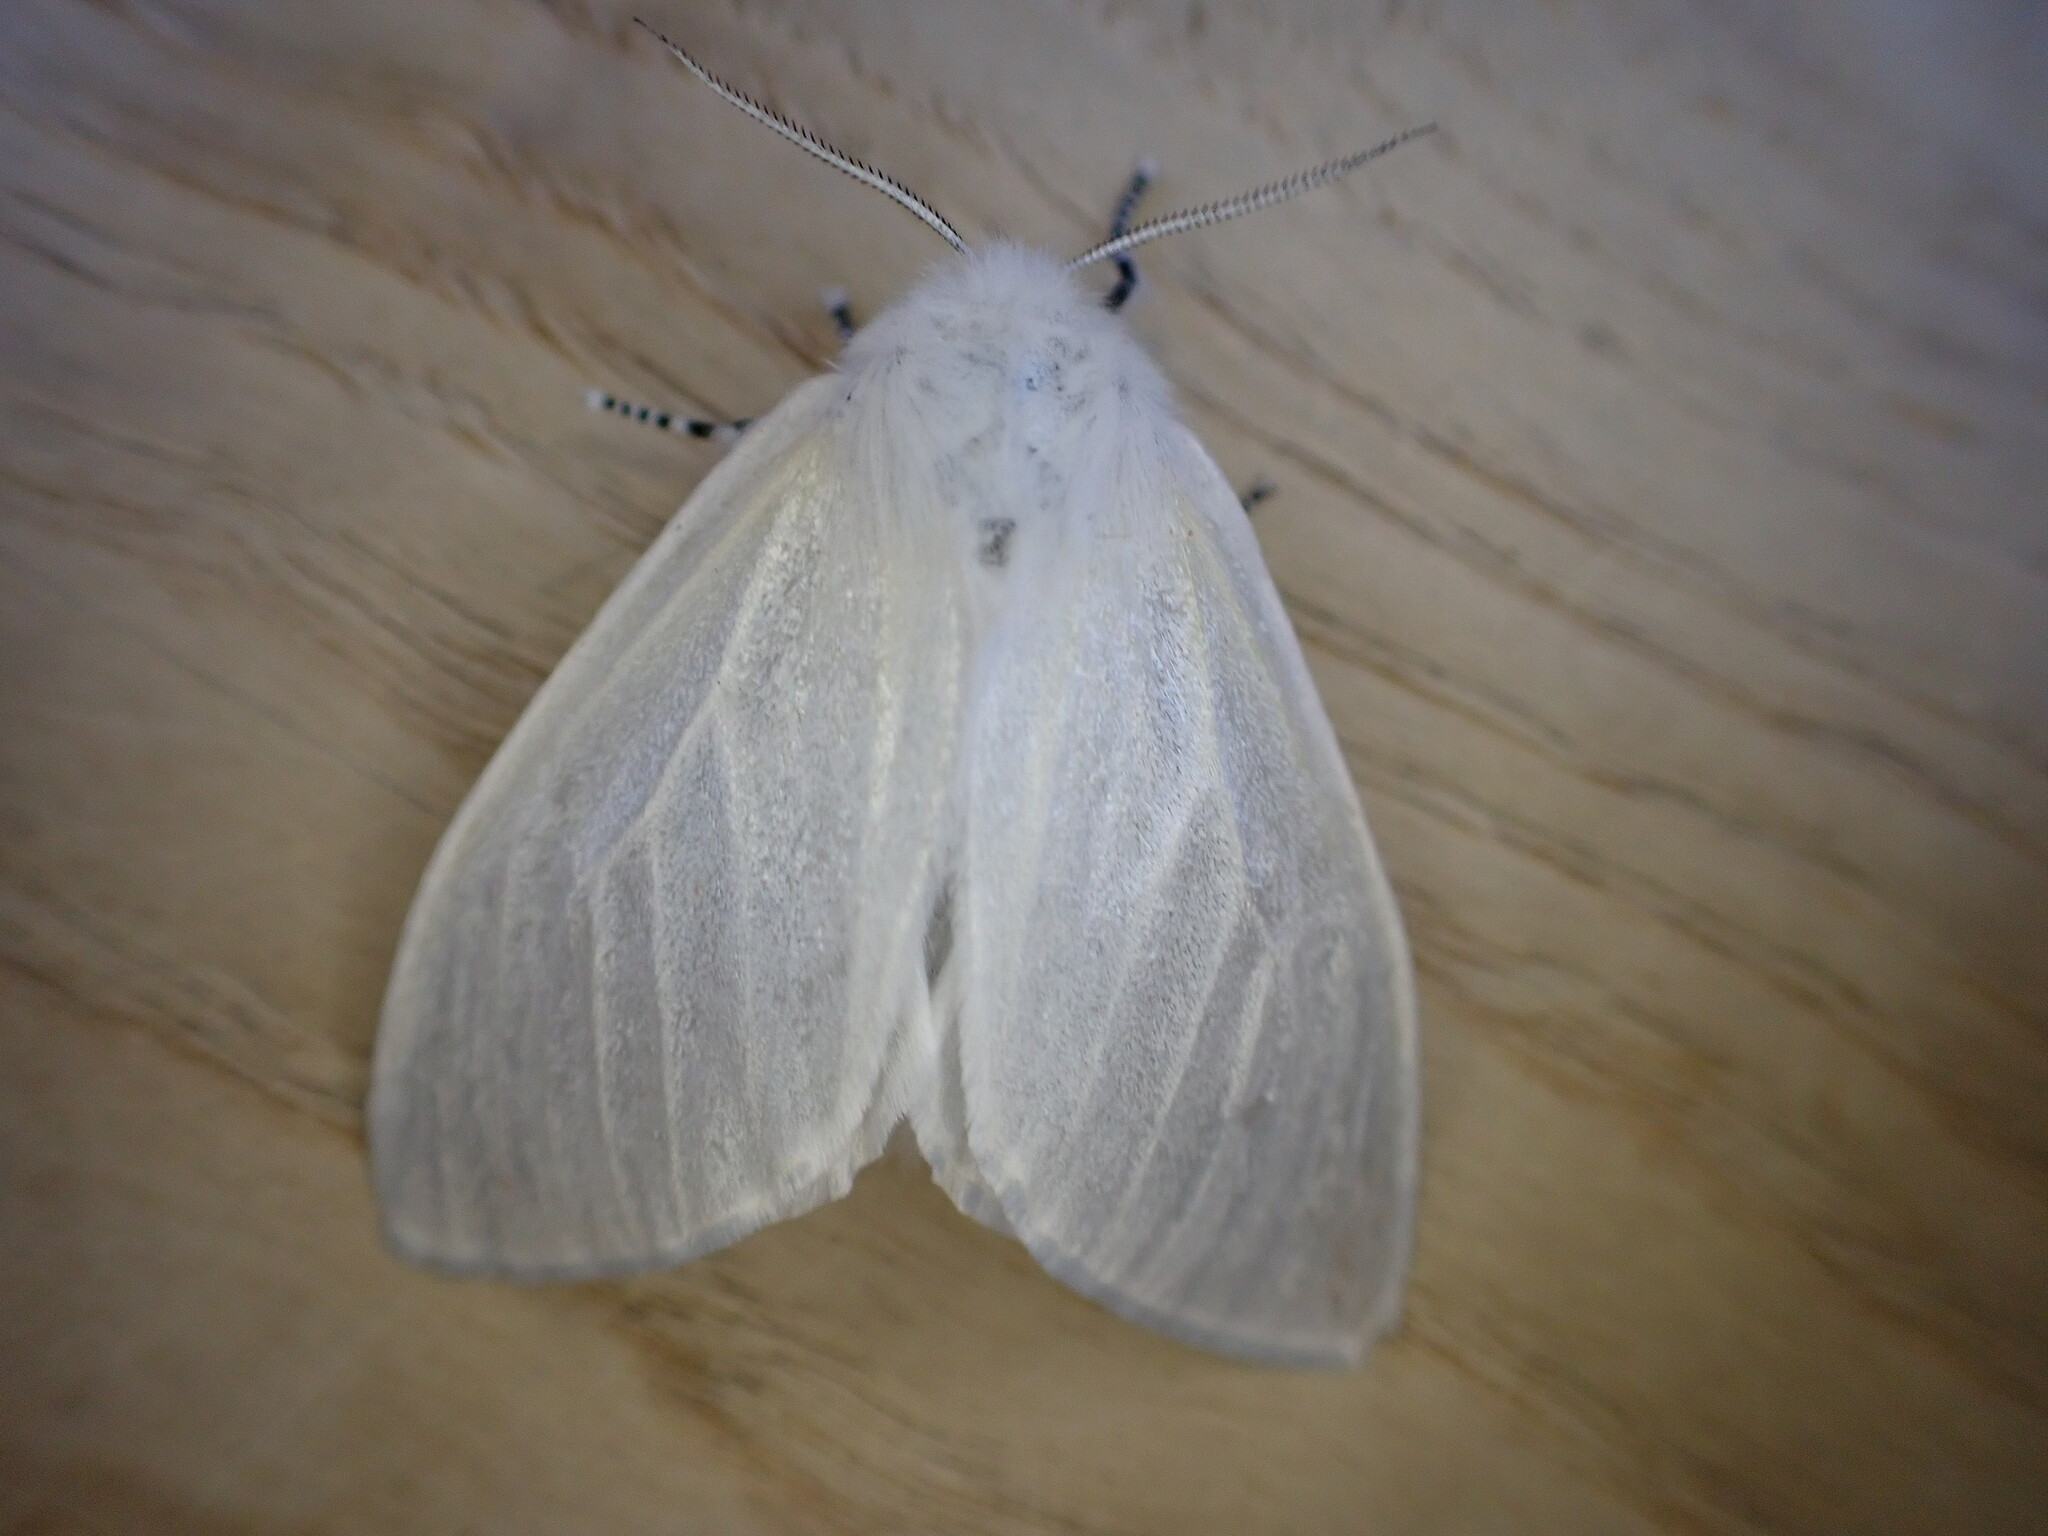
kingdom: Animalia
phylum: Arthropoda
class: Insecta
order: Lepidoptera
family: Erebidae
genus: Leucoma
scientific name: Leucoma salicis
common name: White satin moth
